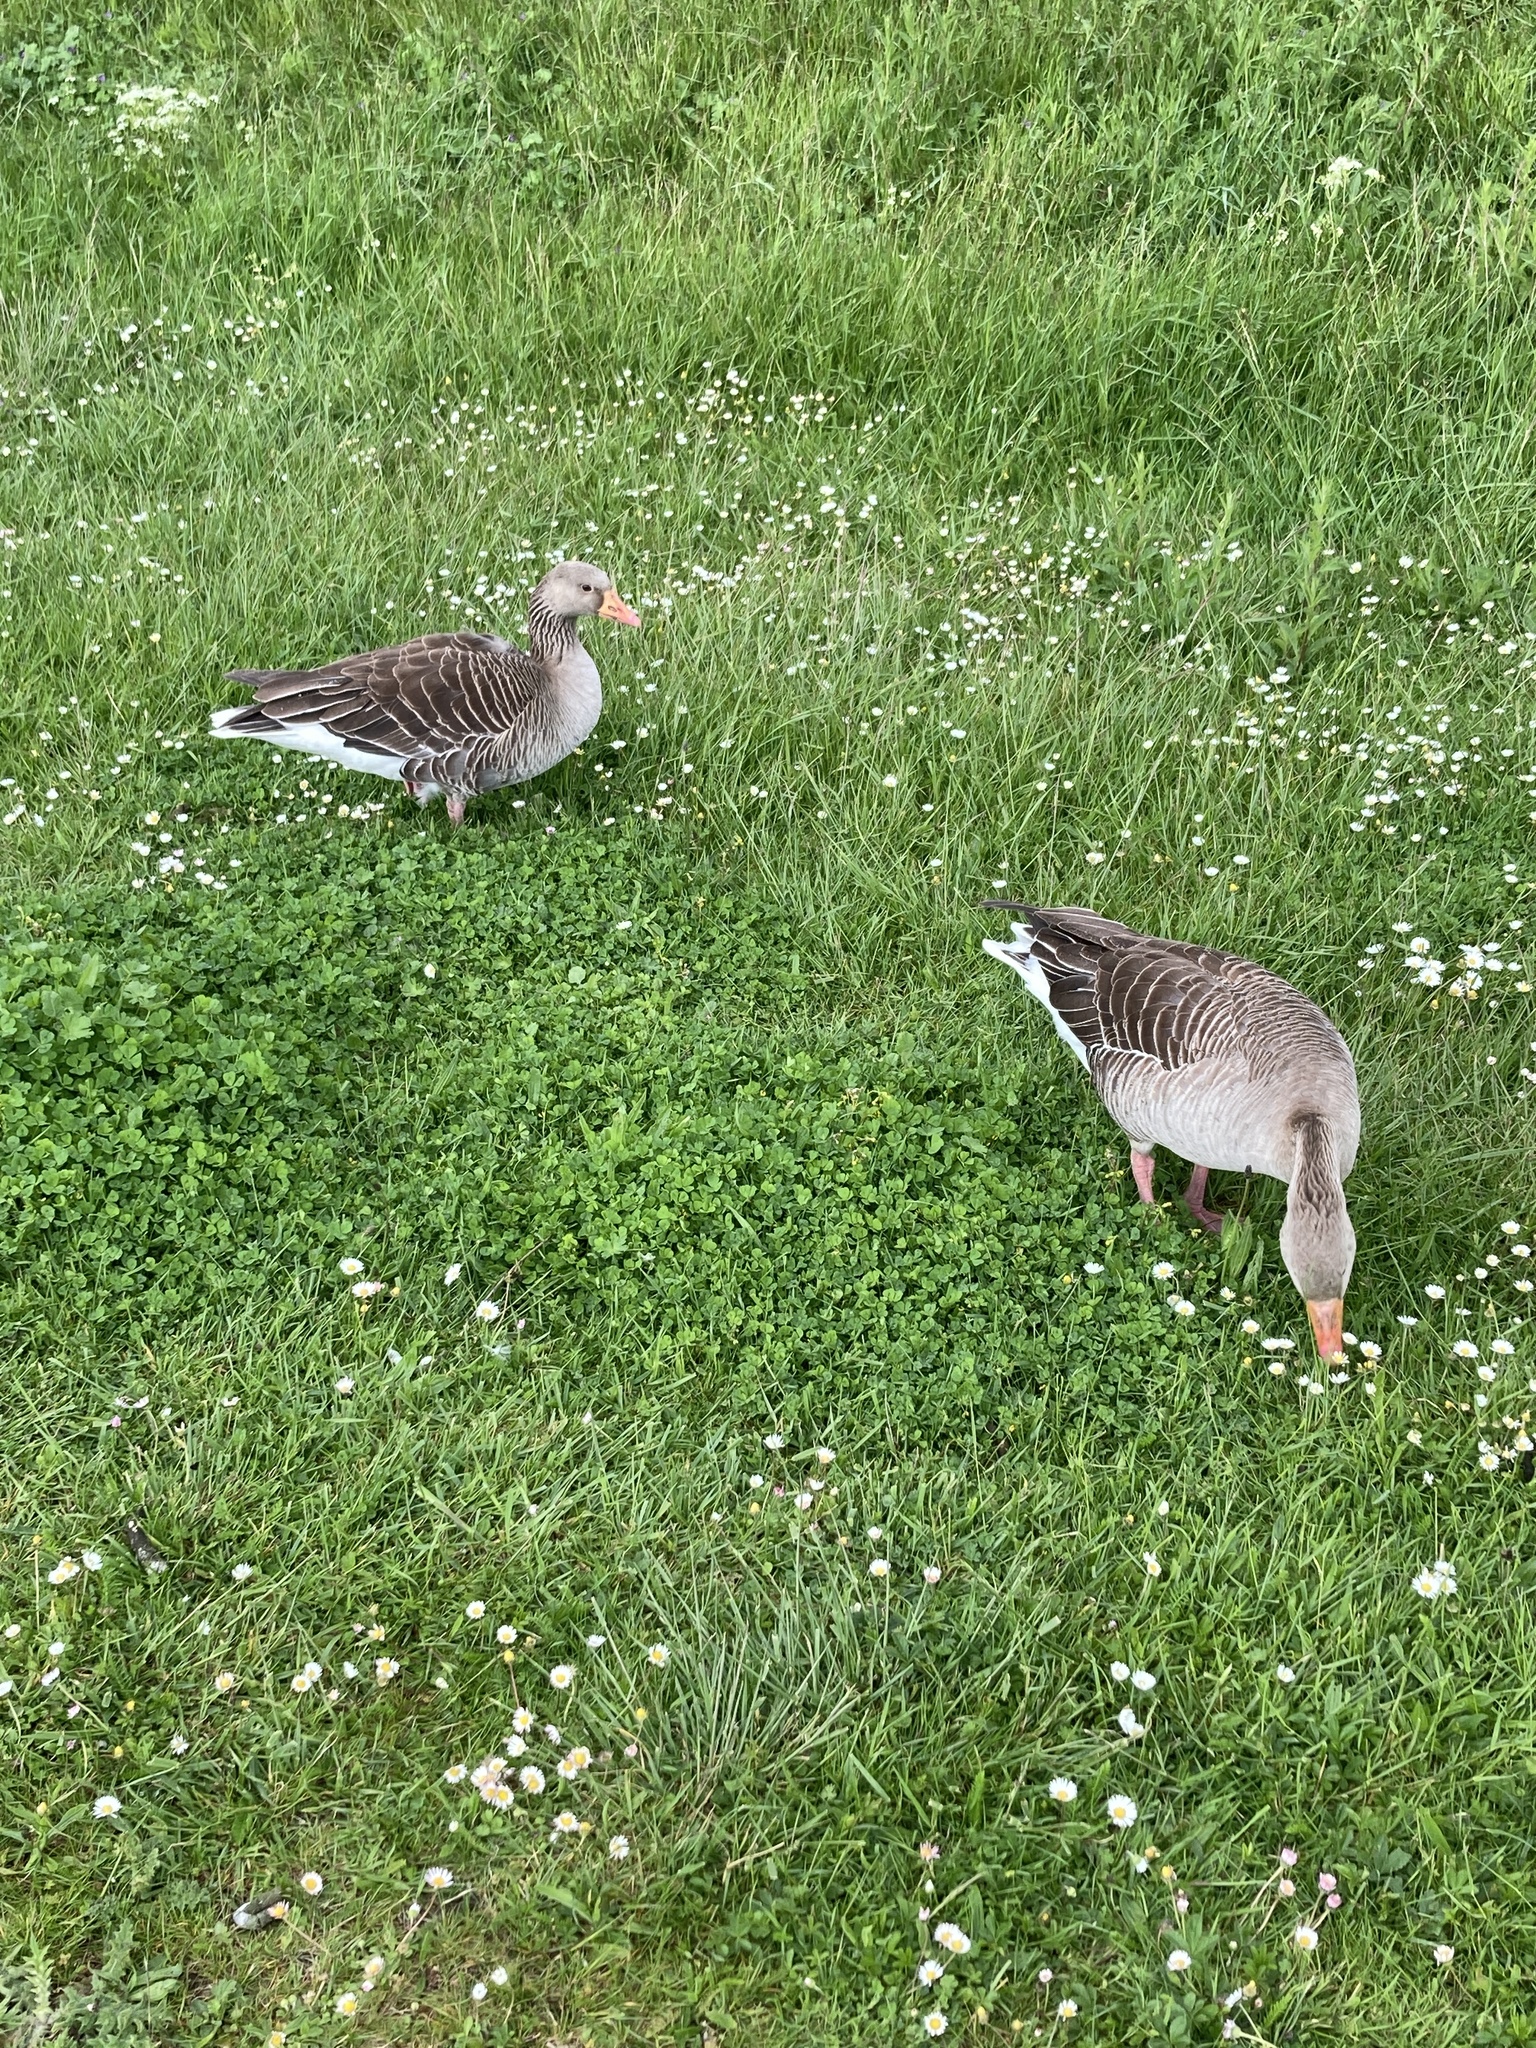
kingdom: Animalia
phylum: Chordata
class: Aves
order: Anseriformes
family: Anatidae
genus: Anser
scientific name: Anser anser
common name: Greylag goose
